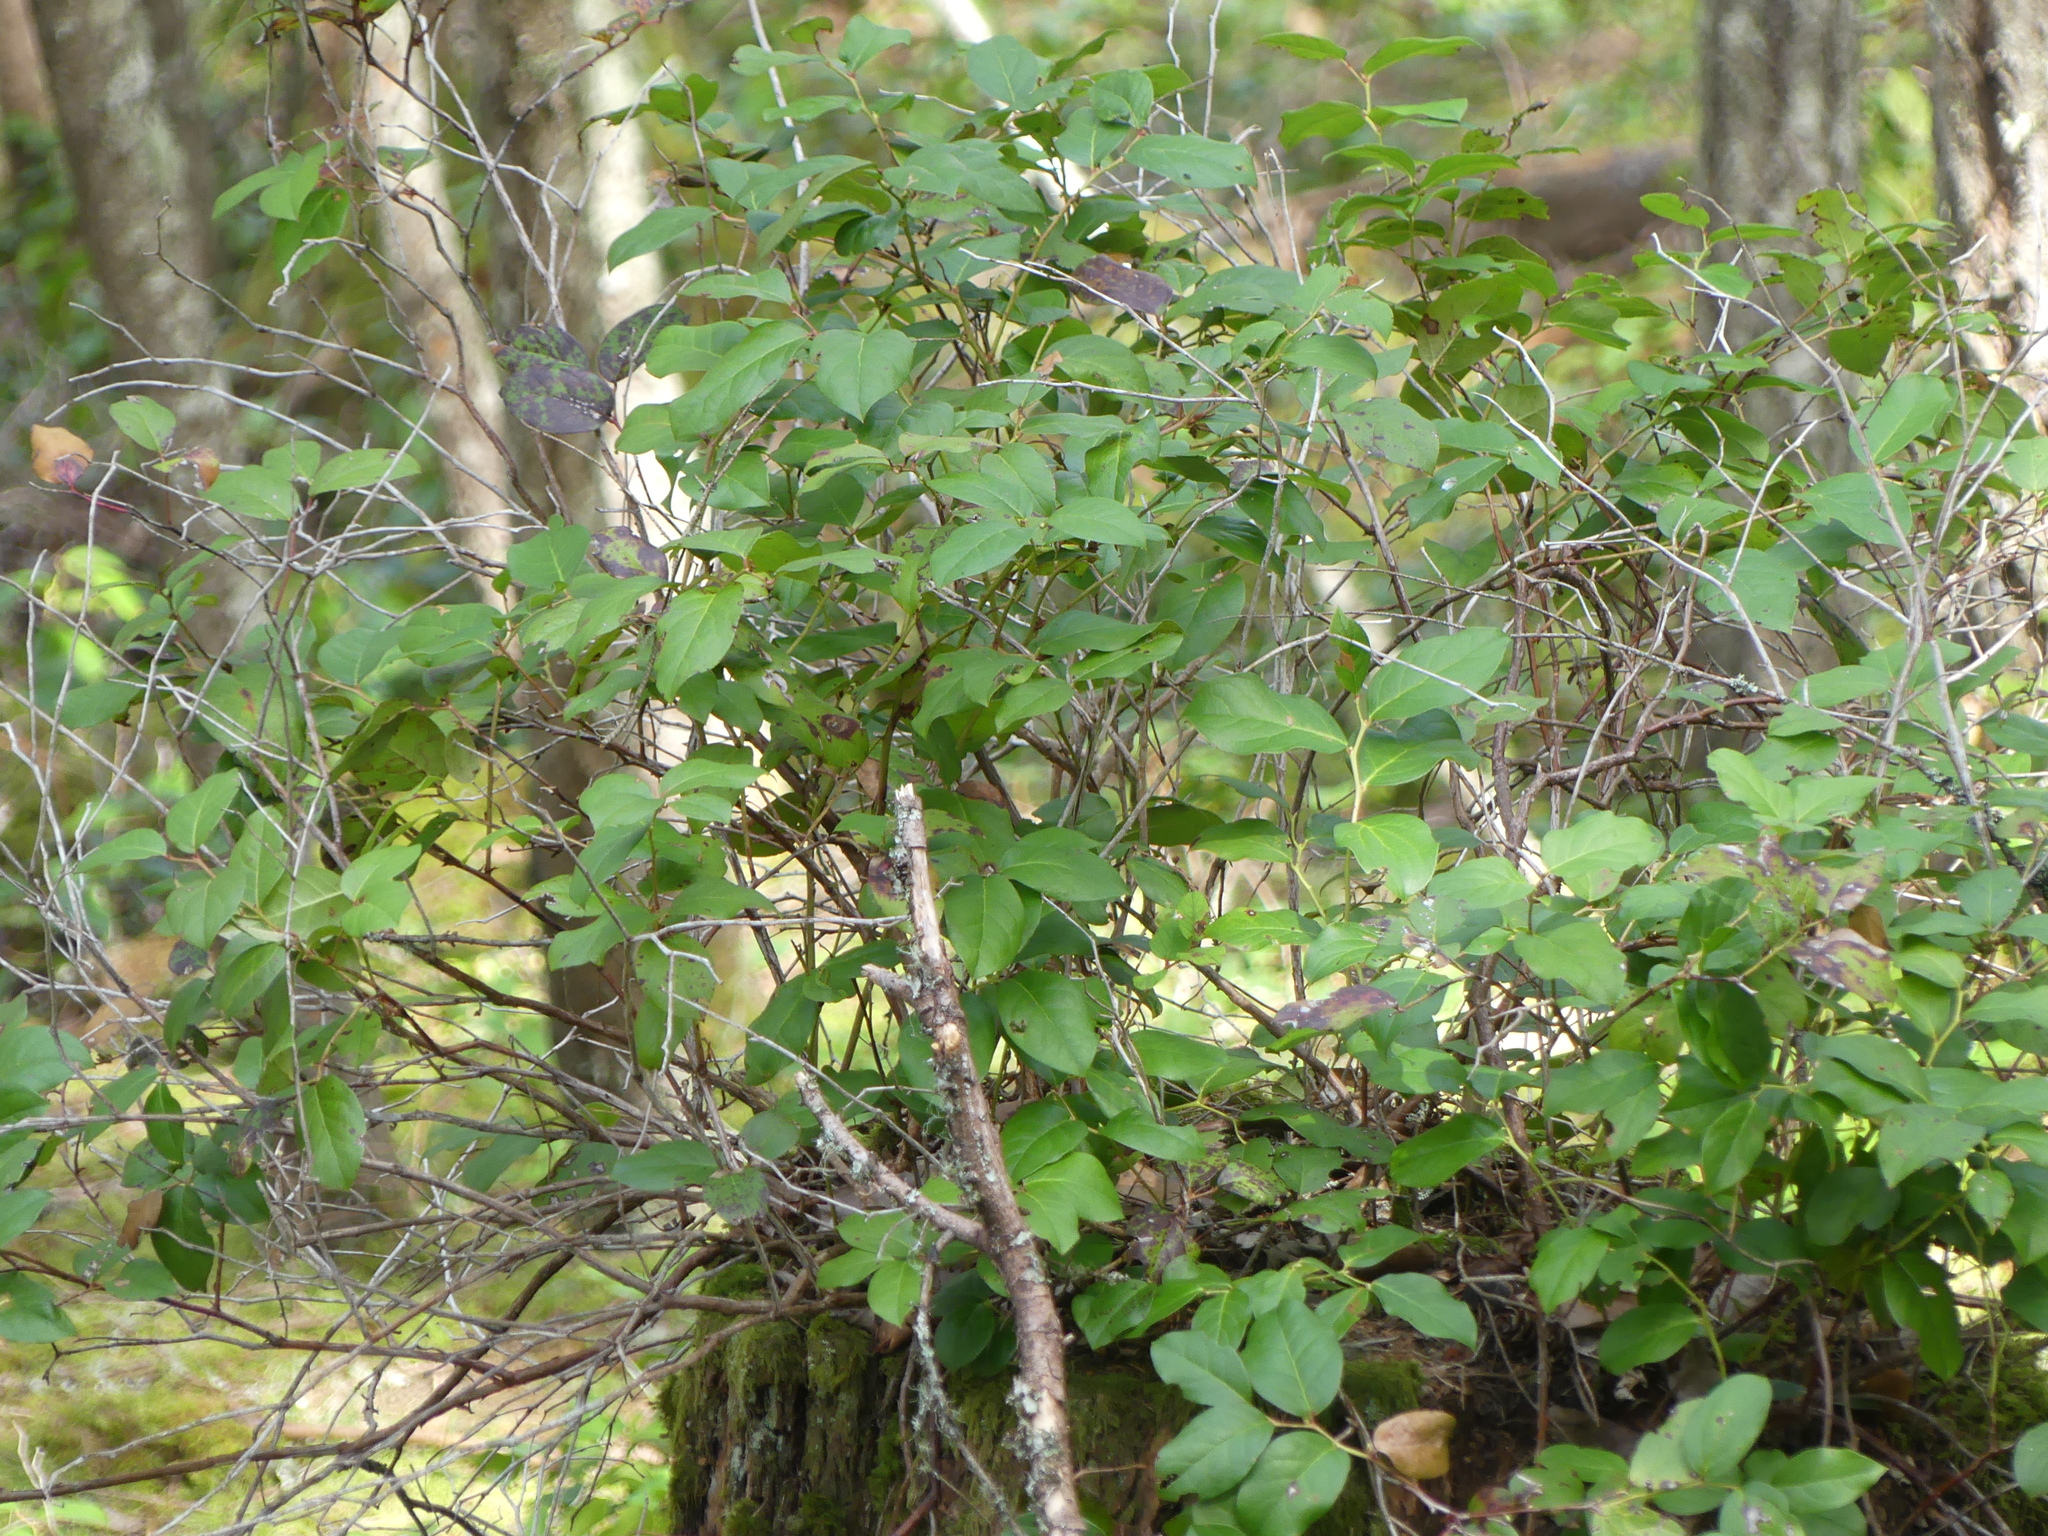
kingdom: Plantae
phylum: Tracheophyta
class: Magnoliopsida
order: Ericales
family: Ericaceae
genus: Gaultheria
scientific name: Gaultheria shallon
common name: Shallon
